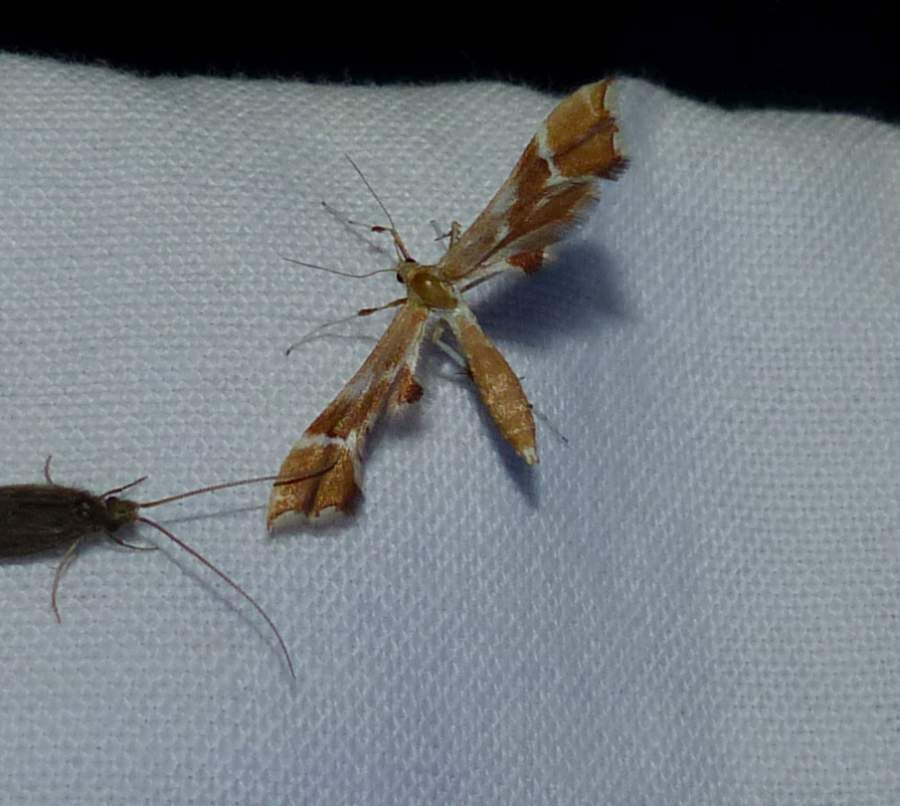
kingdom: Animalia
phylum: Arthropoda
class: Insecta
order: Lepidoptera
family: Pterophoridae
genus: Cnaemidophorus
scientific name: Cnaemidophorus rhododactyla
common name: Rose plume
